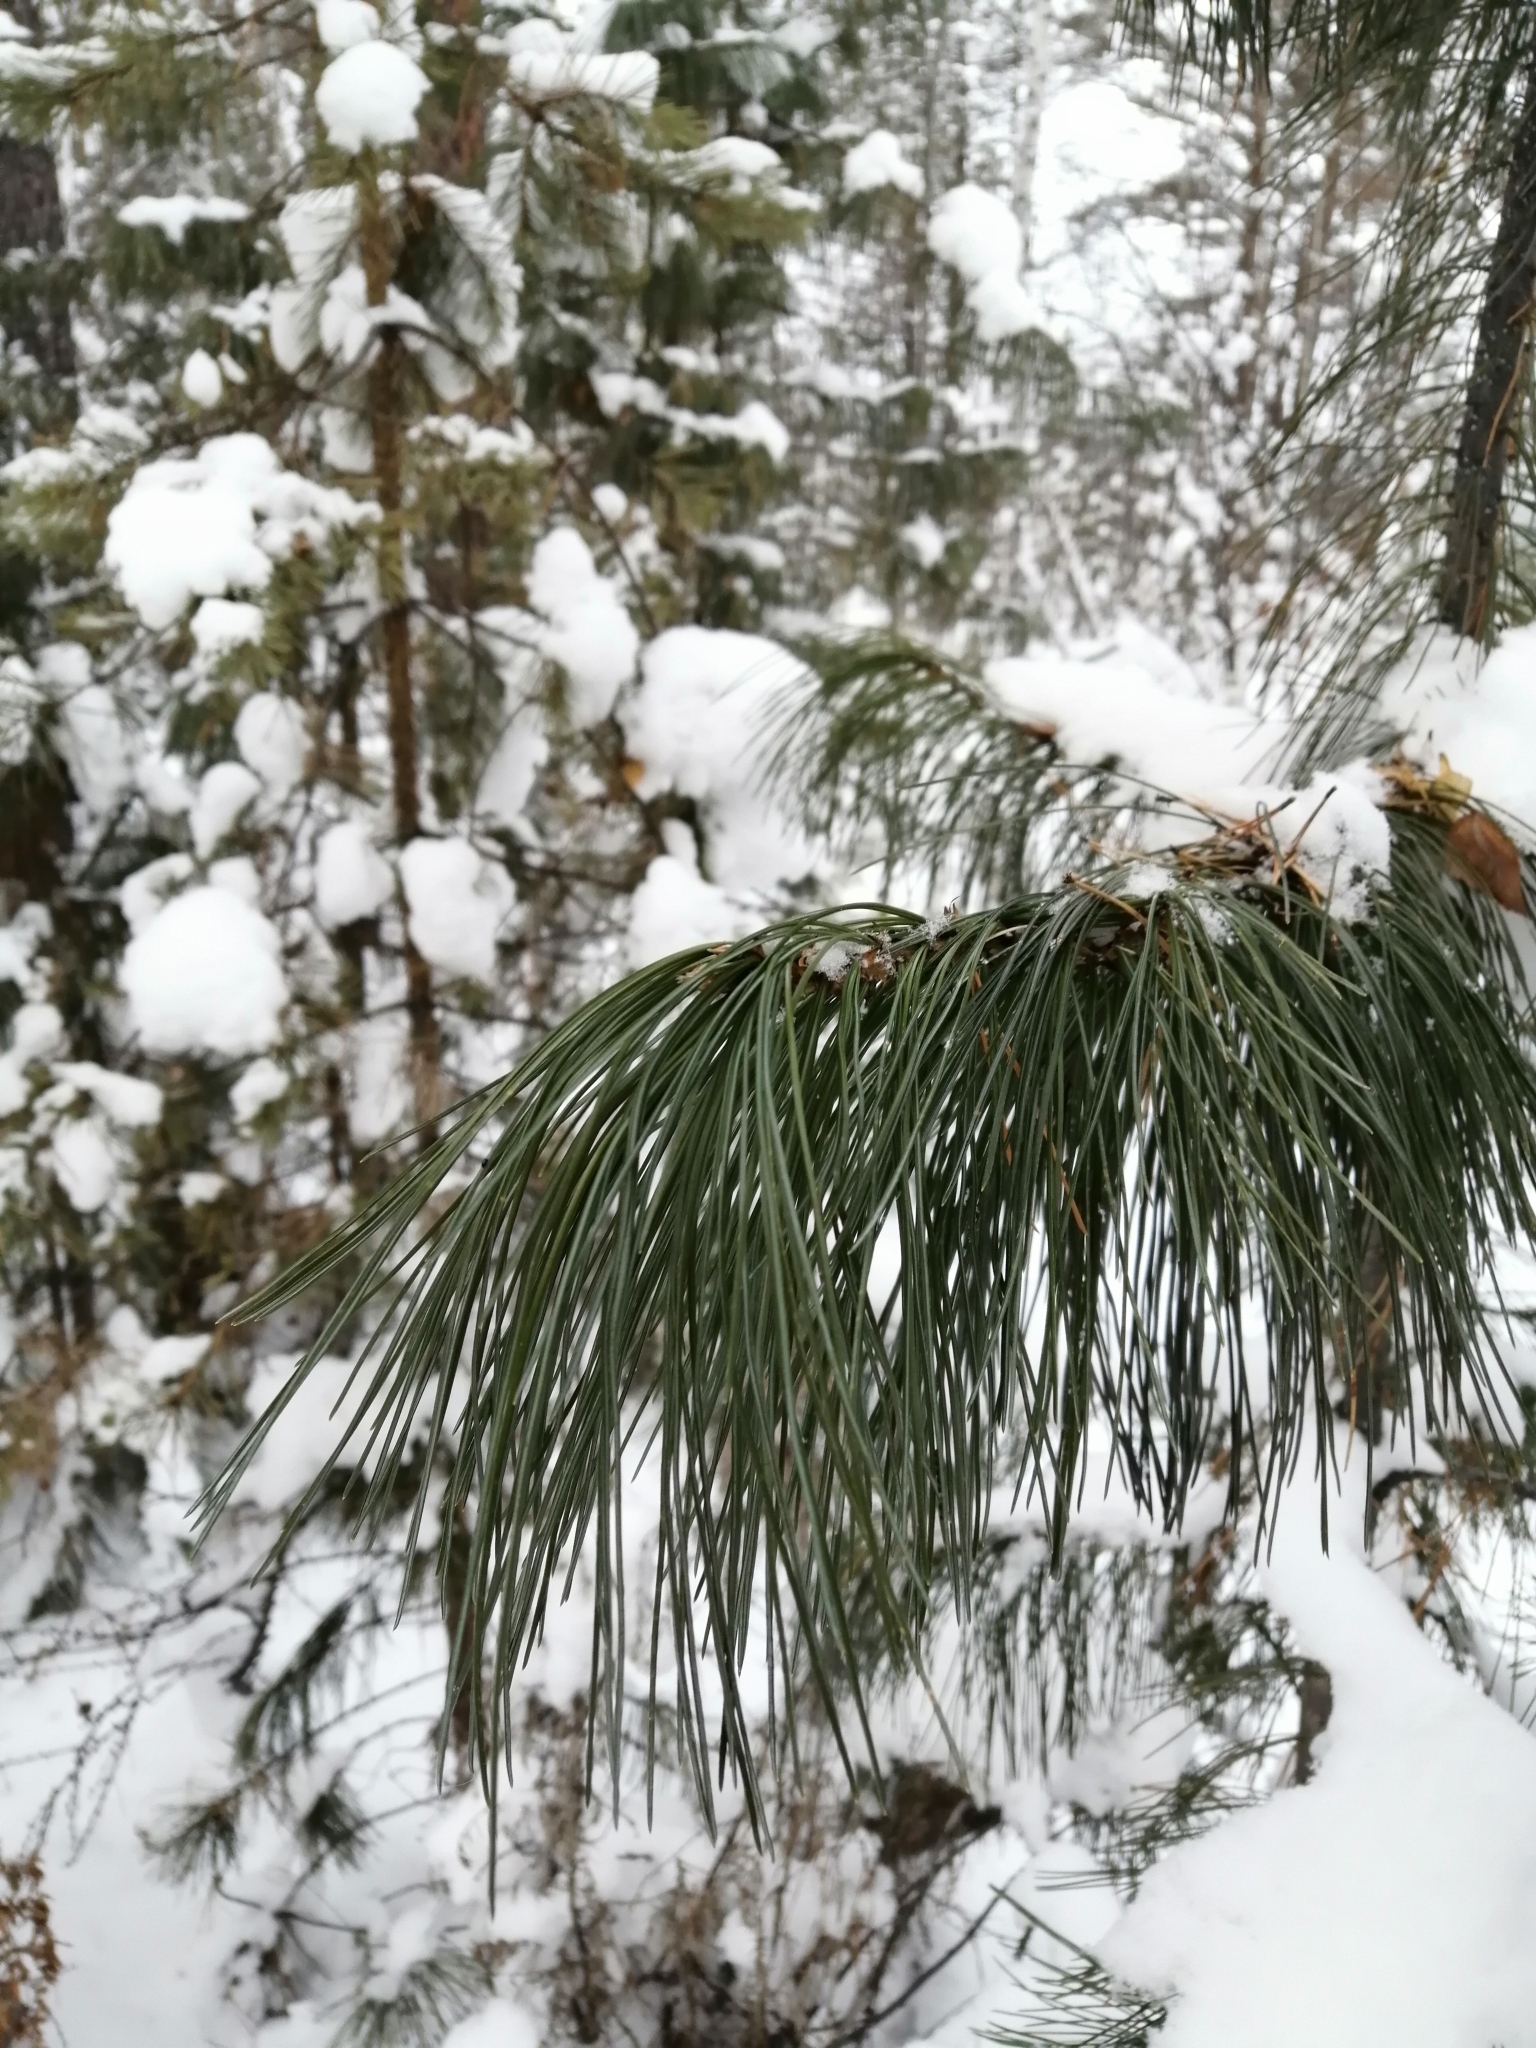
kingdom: Plantae
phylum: Tracheophyta
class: Pinopsida
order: Pinales
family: Pinaceae
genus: Pinus
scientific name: Pinus sibirica
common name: Siberian pine
